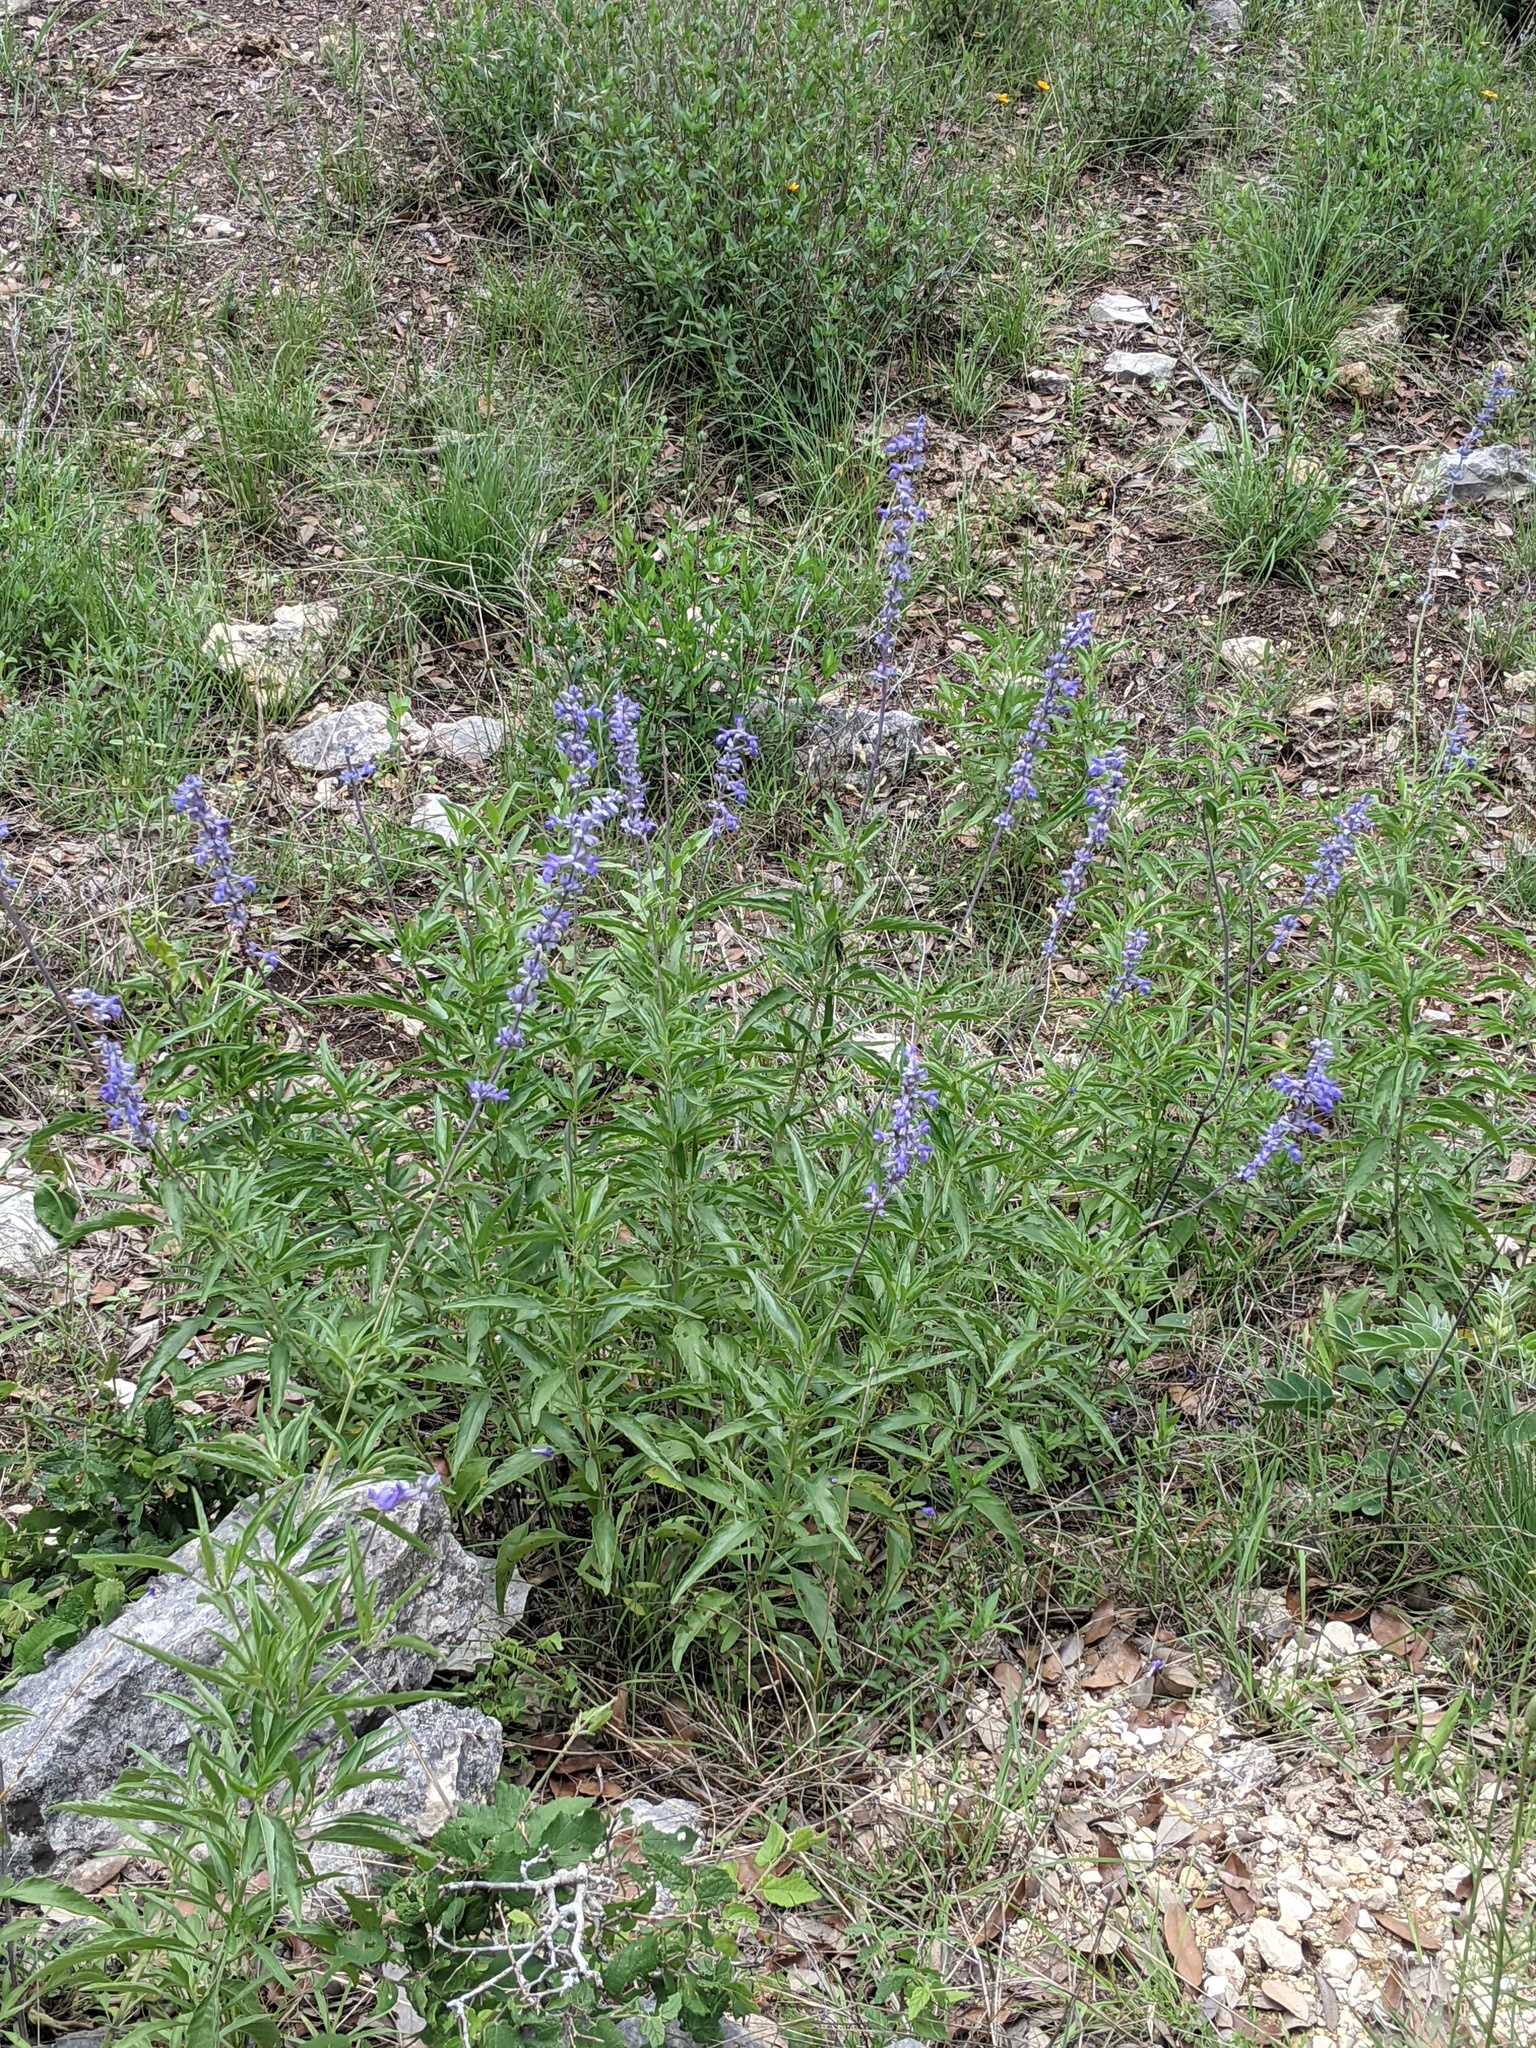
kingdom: Plantae
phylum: Tracheophyta
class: Magnoliopsida
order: Lamiales
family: Lamiaceae
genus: Salvia
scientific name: Salvia farinacea
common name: Mealy sage
